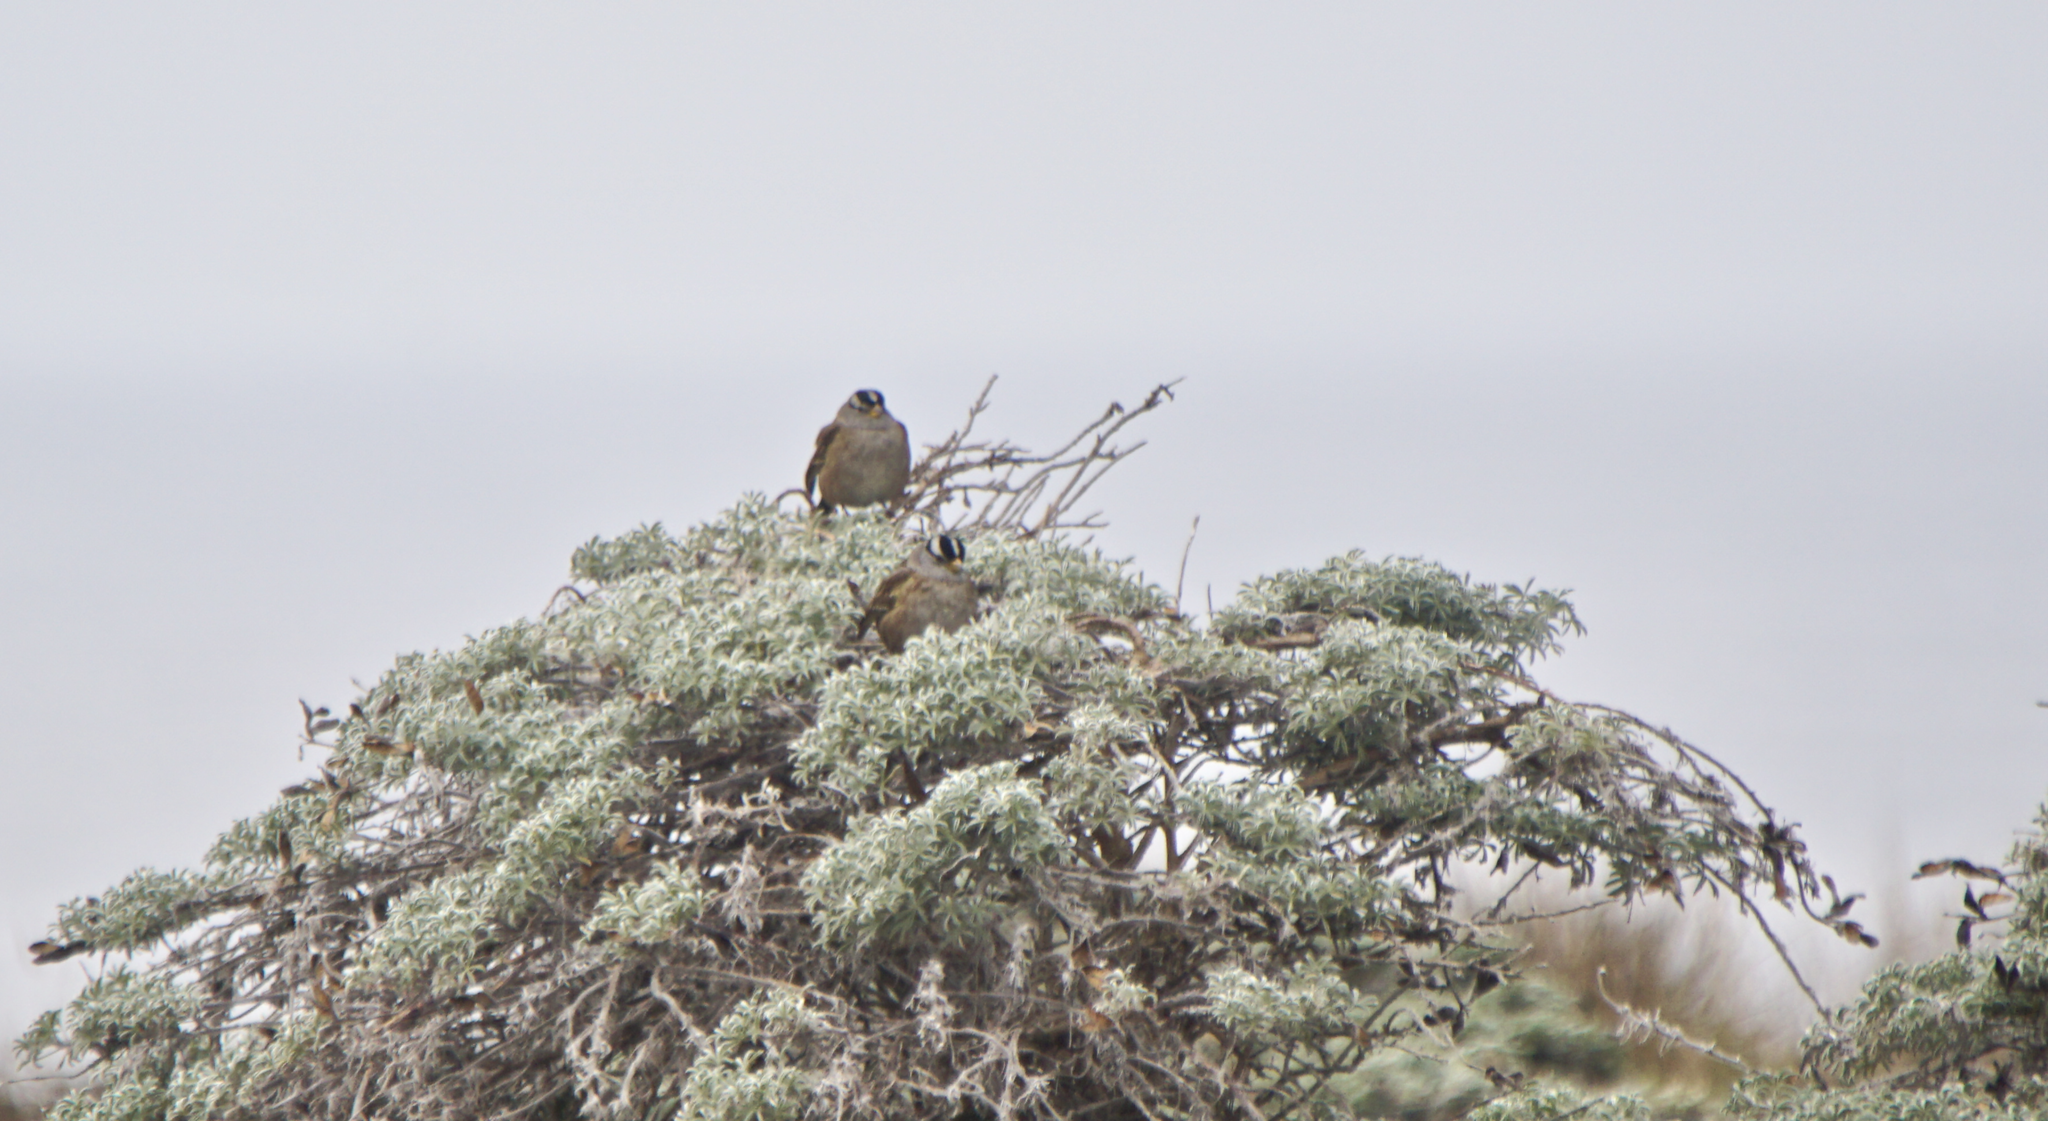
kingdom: Animalia
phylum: Chordata
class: Aves
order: Passeriformes
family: Passerellidae
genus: Zonotrichia
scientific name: Zonotrichia leucophrys
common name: White-crowned sparrow
